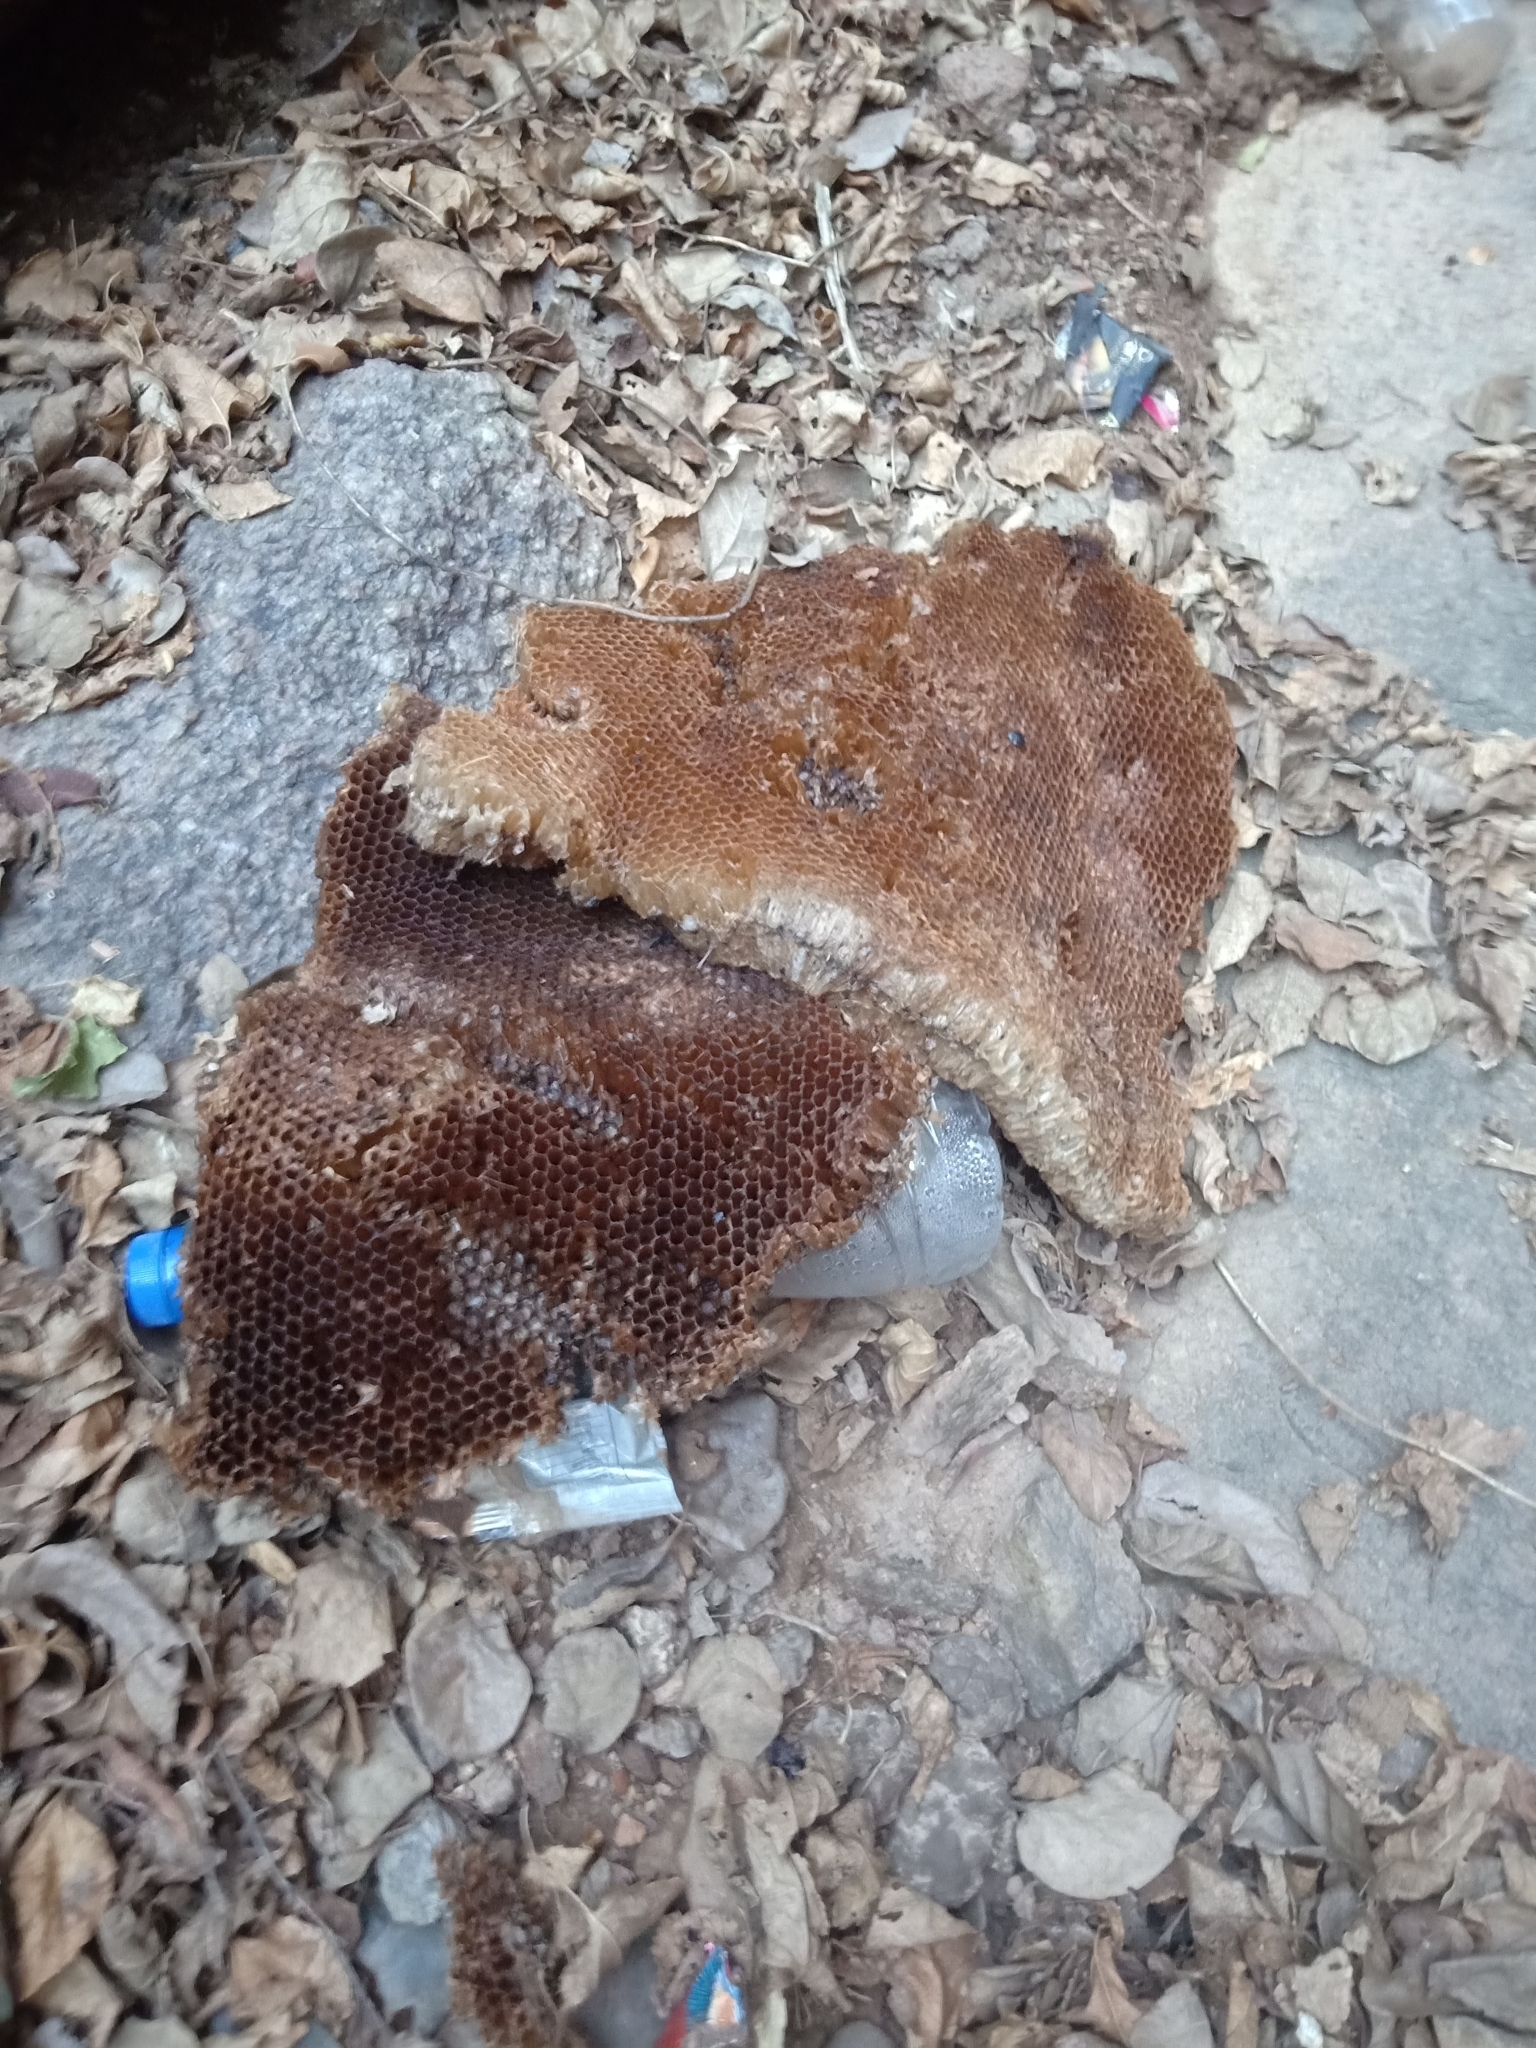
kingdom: Animalia
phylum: Arthropoda
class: Insecta
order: Hymenoptera
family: Apidae
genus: Apis
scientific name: Apis
